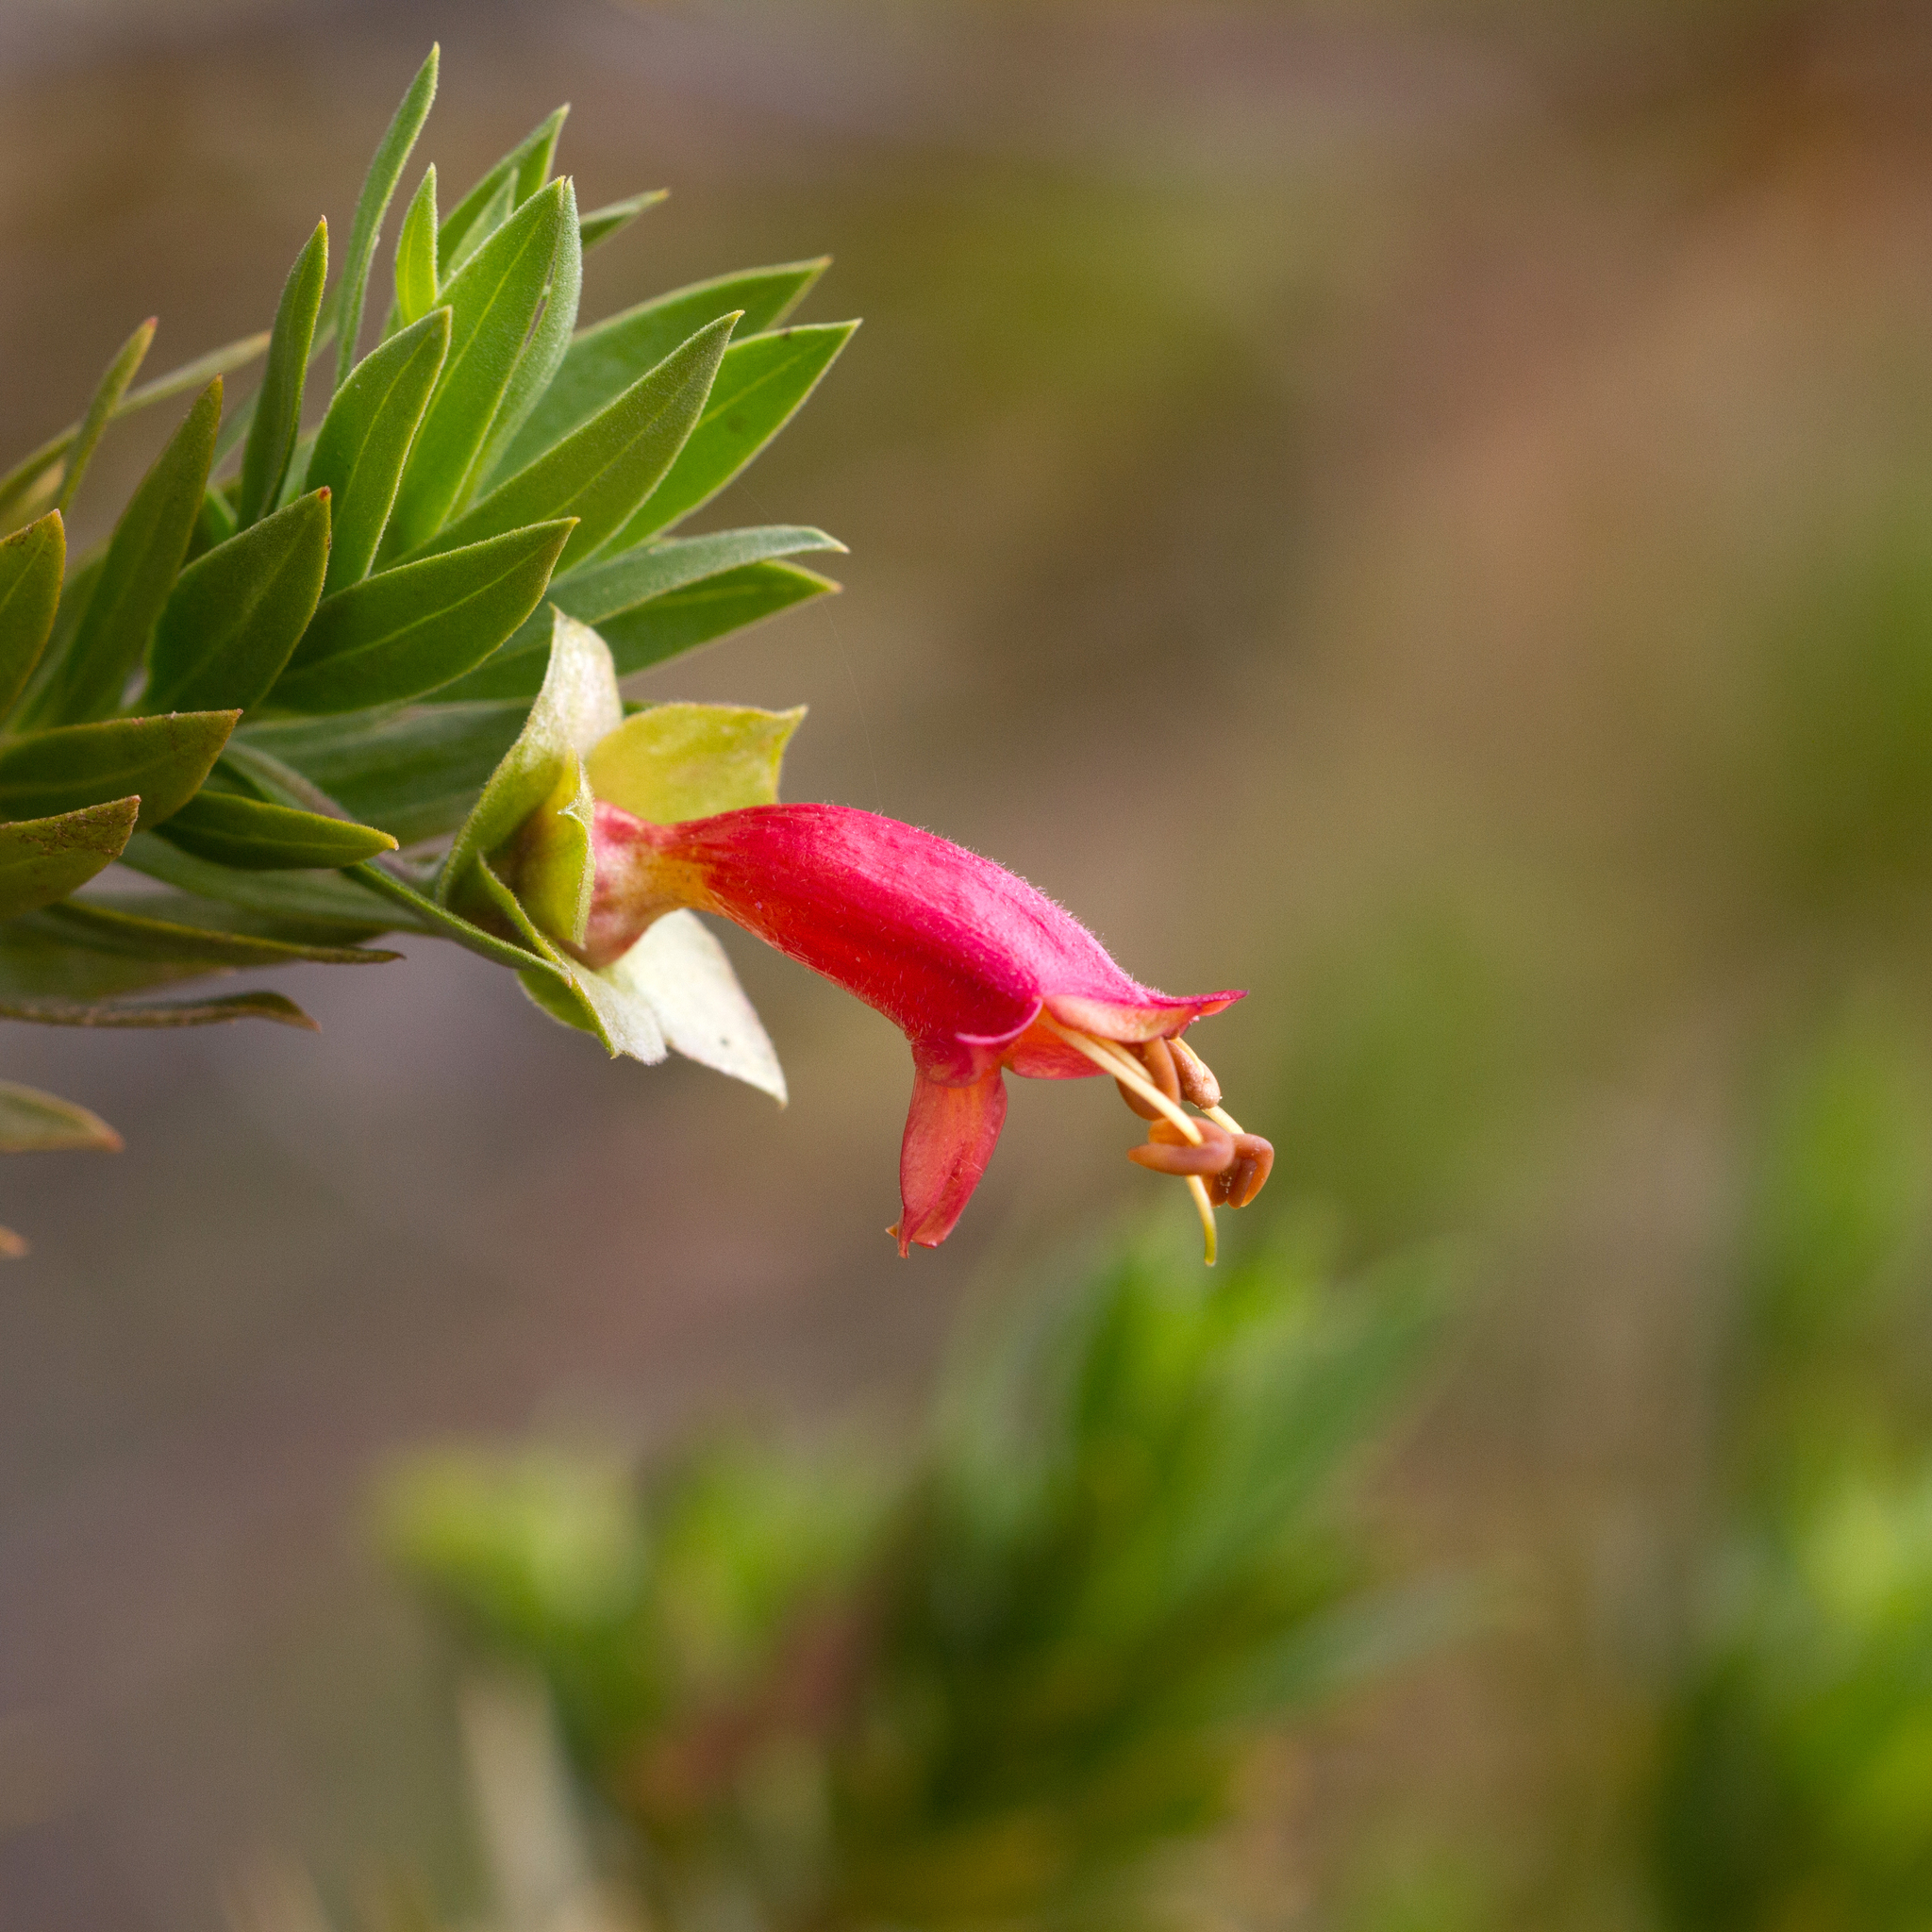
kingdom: Plantae
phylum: Tracheophyta
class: Magnoliopsida
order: Lamiales
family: Scrophulariaceae
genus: Eremophila
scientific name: Eremophila duttonii
